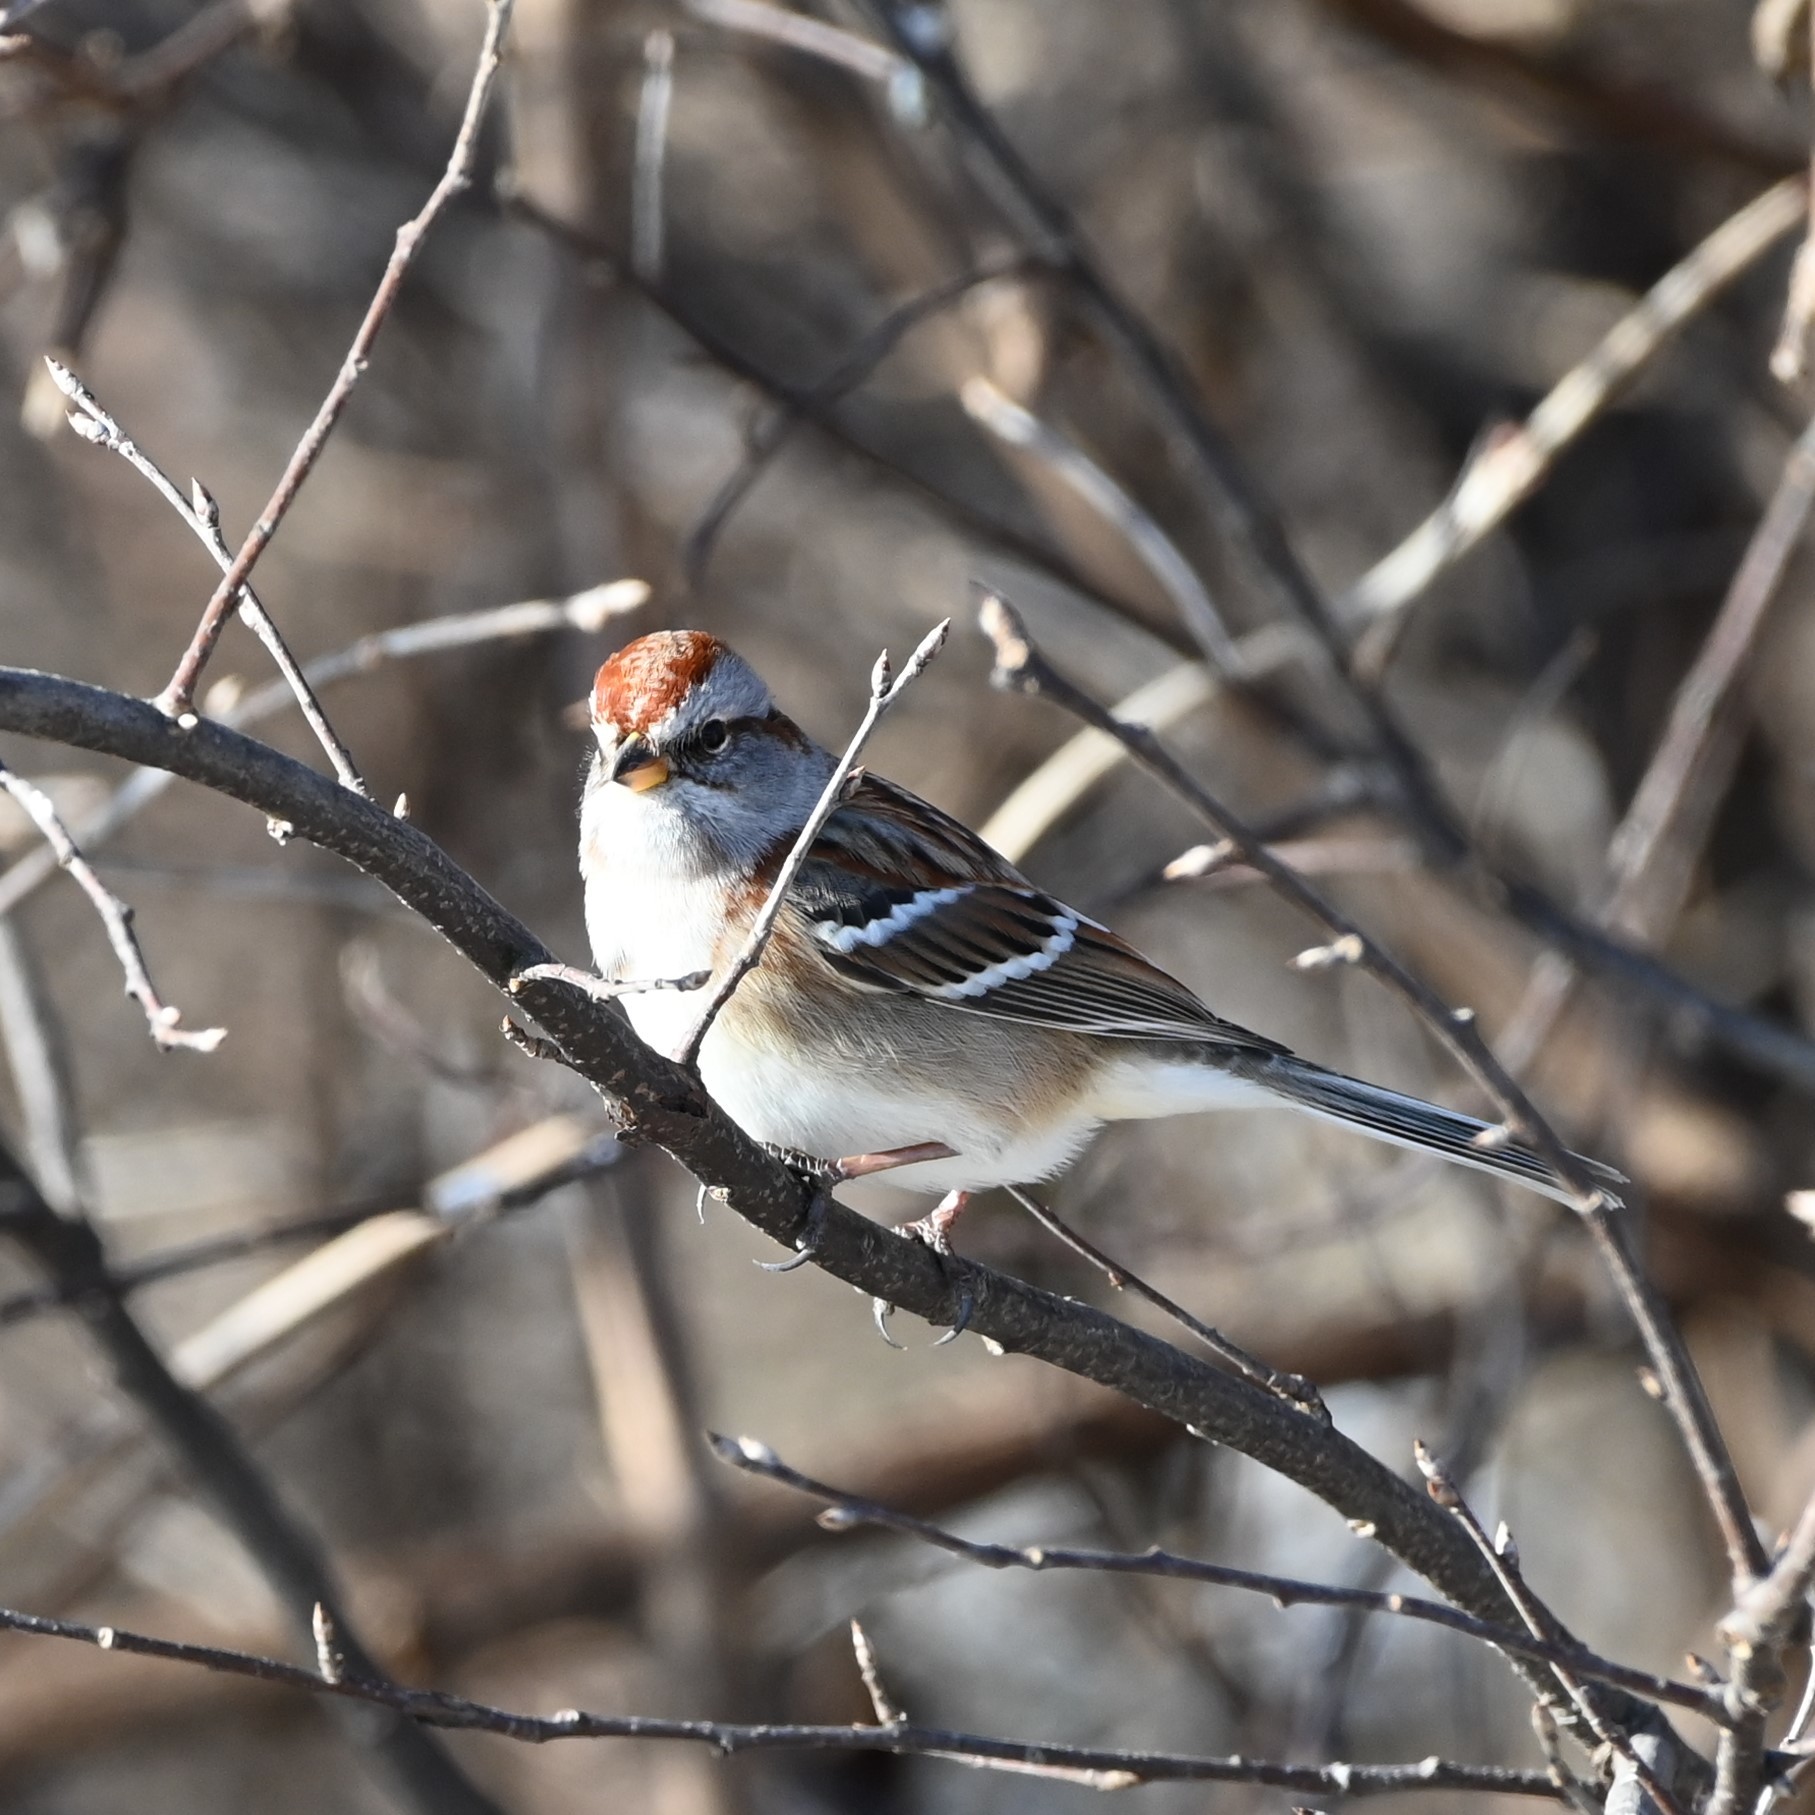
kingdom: Animalia
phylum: Chordata
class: Aves
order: Passeriformes
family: Passerellidae
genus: Spizelloides
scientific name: Spizelloides arborea
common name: American tree sparrow
